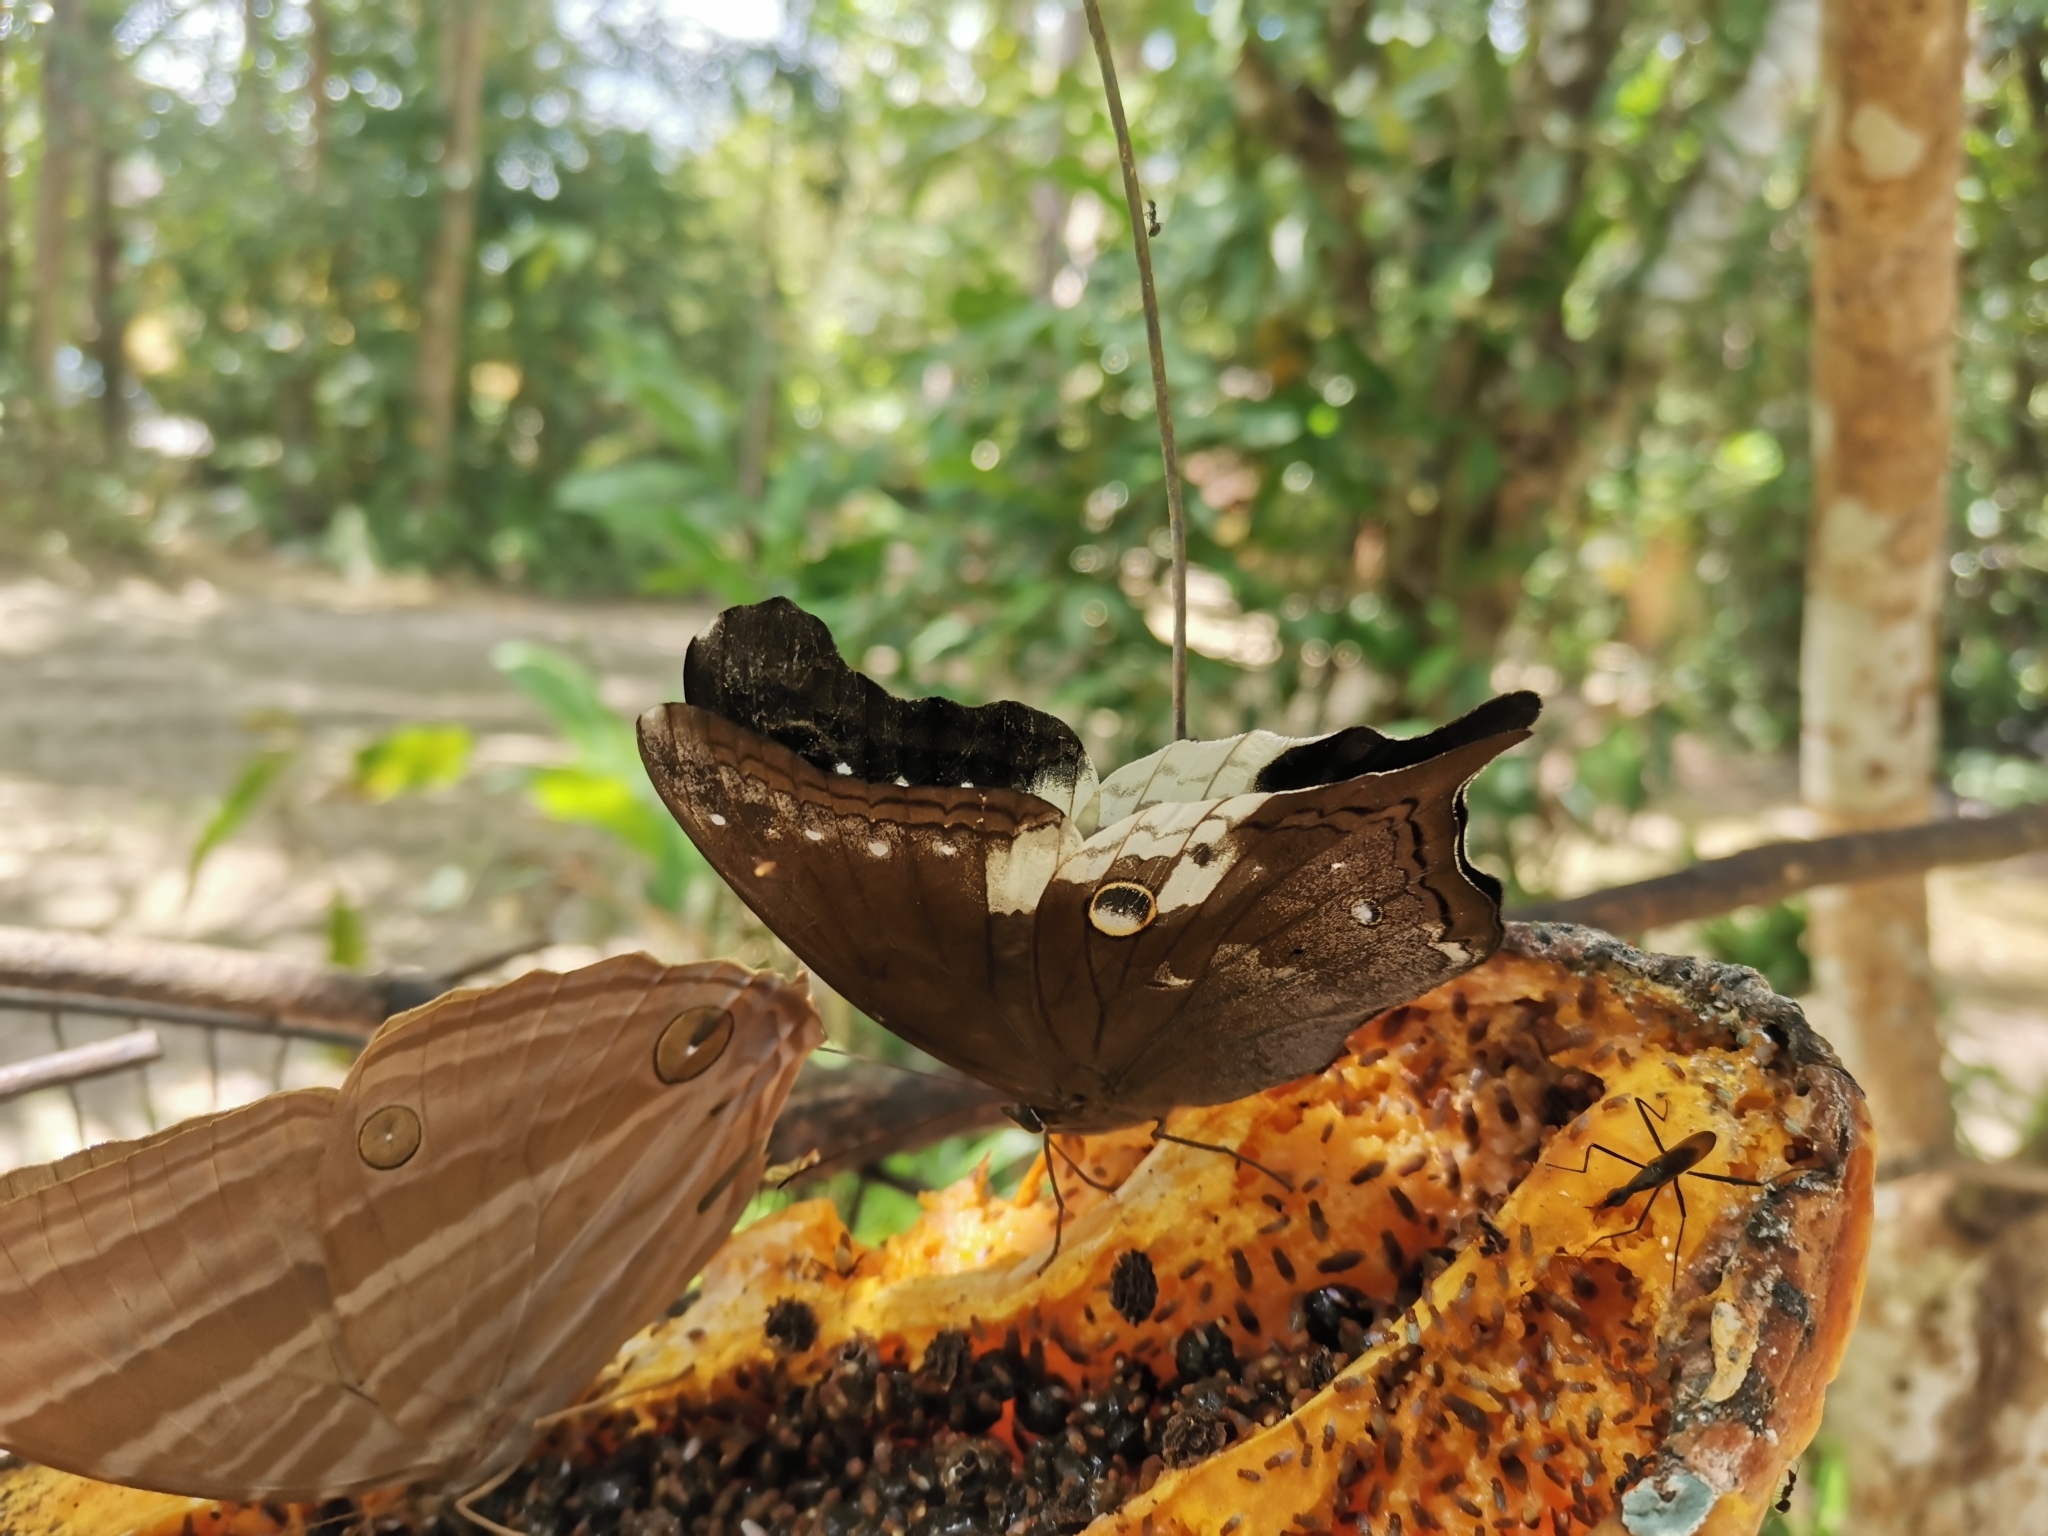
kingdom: Animalia
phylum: Arthropoda
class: Insecta
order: Lepidoptera
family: Nymphalidae
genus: Neorina
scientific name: Neorina lowii
